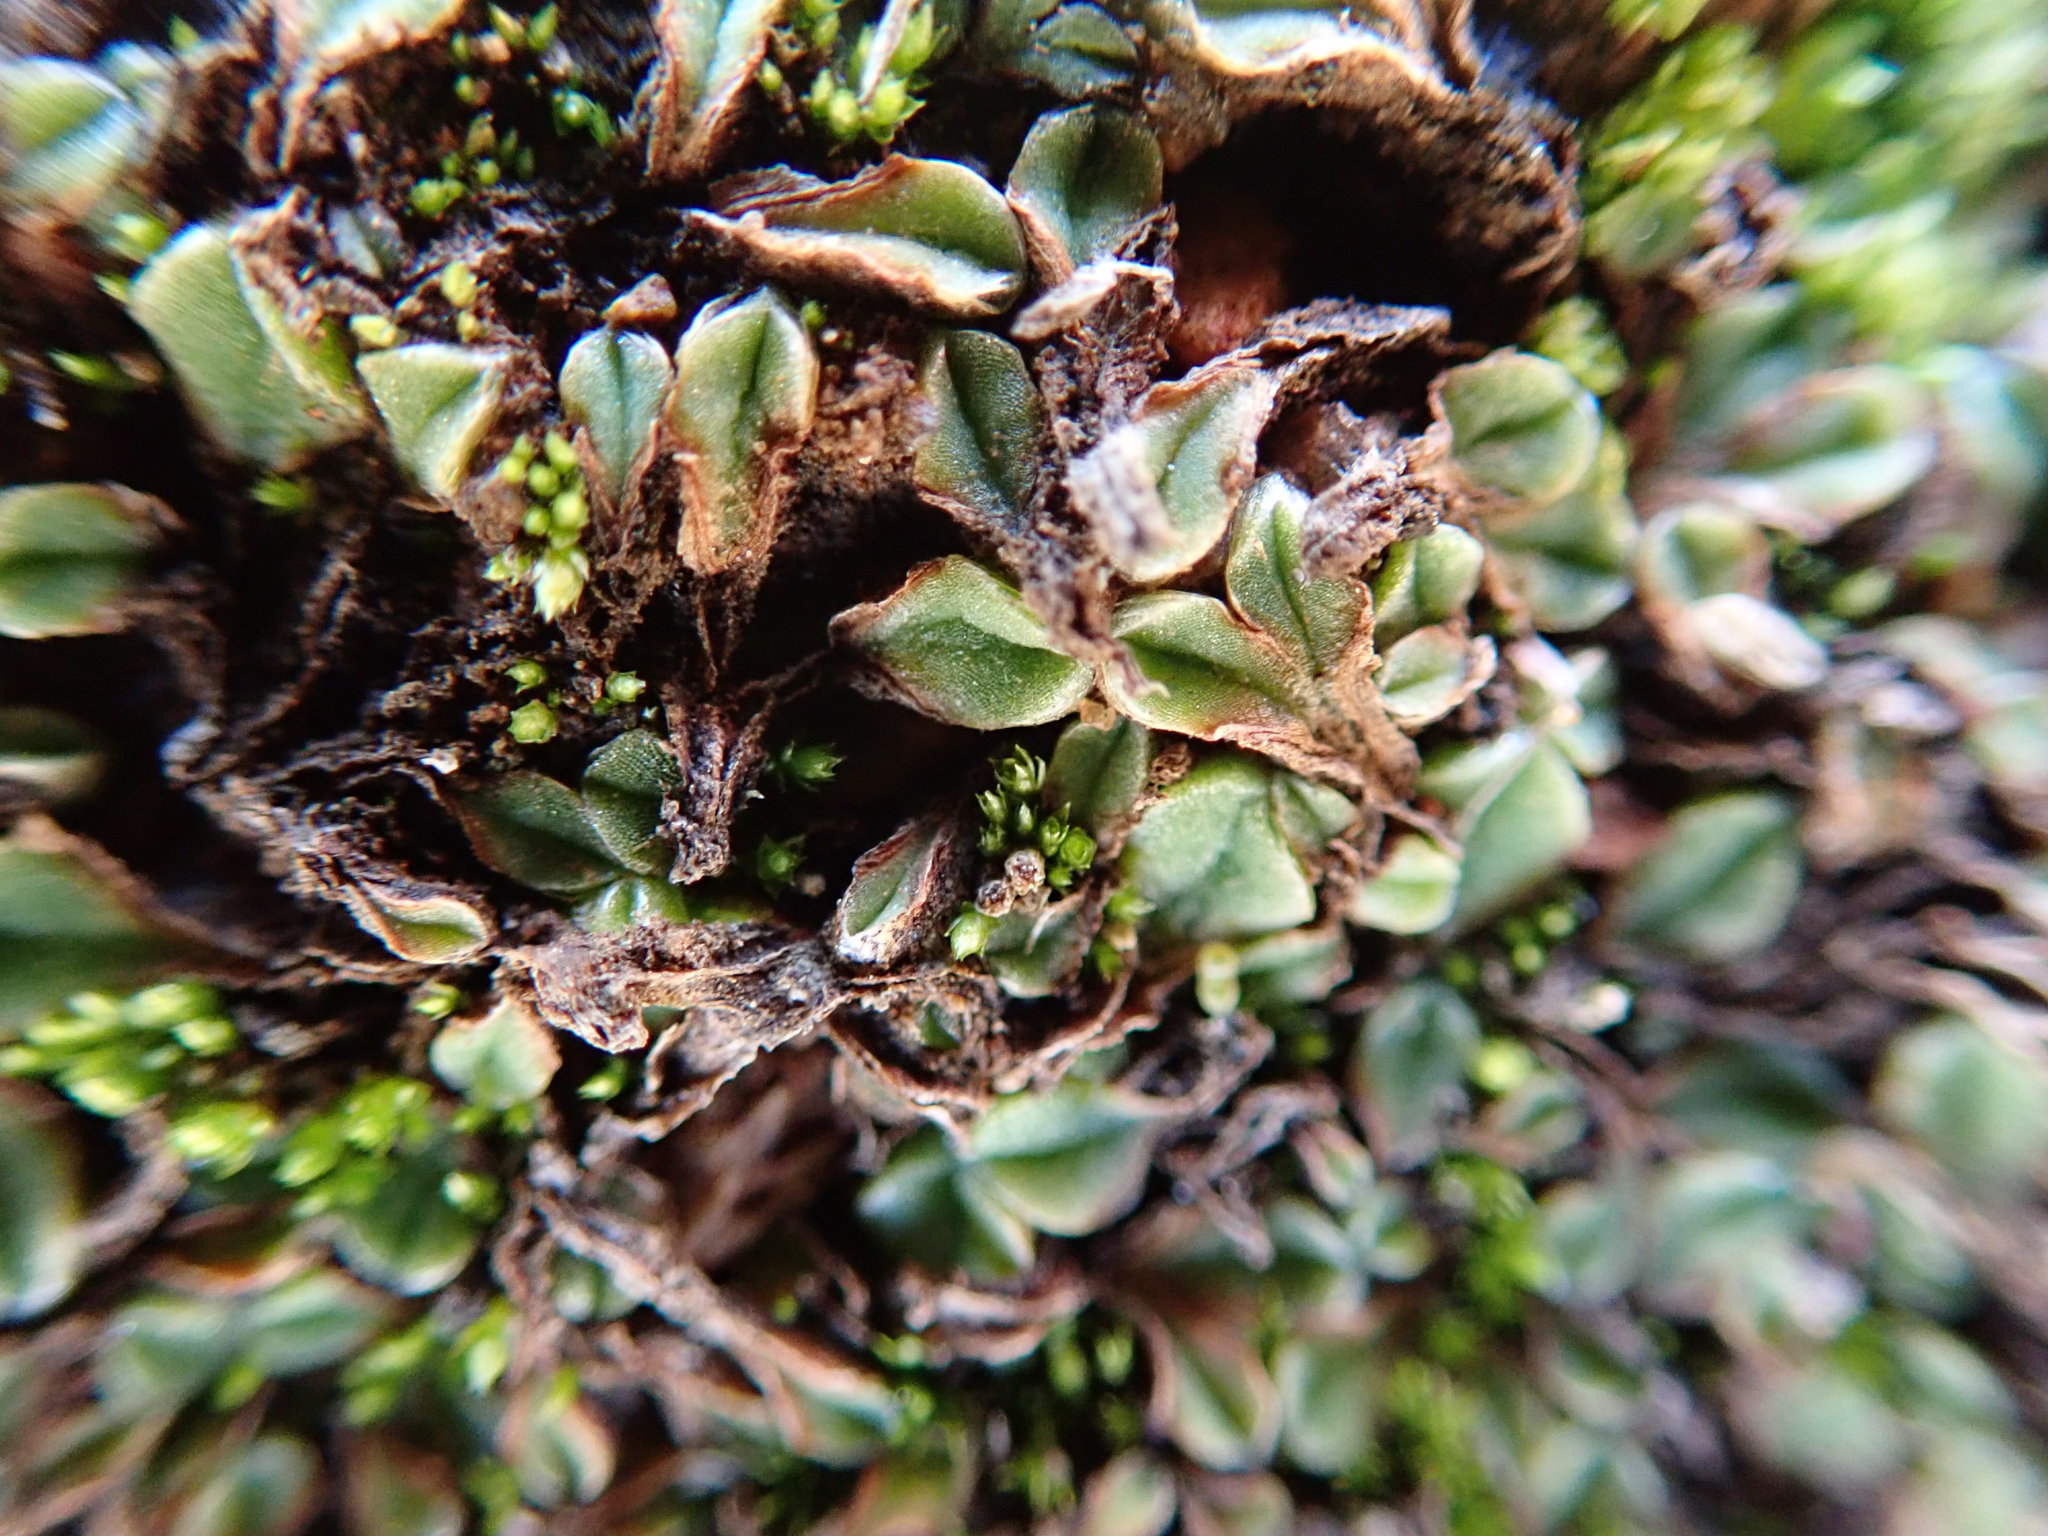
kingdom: Plantae
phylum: Marchantiophyta
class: Marchantiopsida
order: Marchantiales
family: Ricciaceae
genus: Riccia
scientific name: Riccia campbelliana
